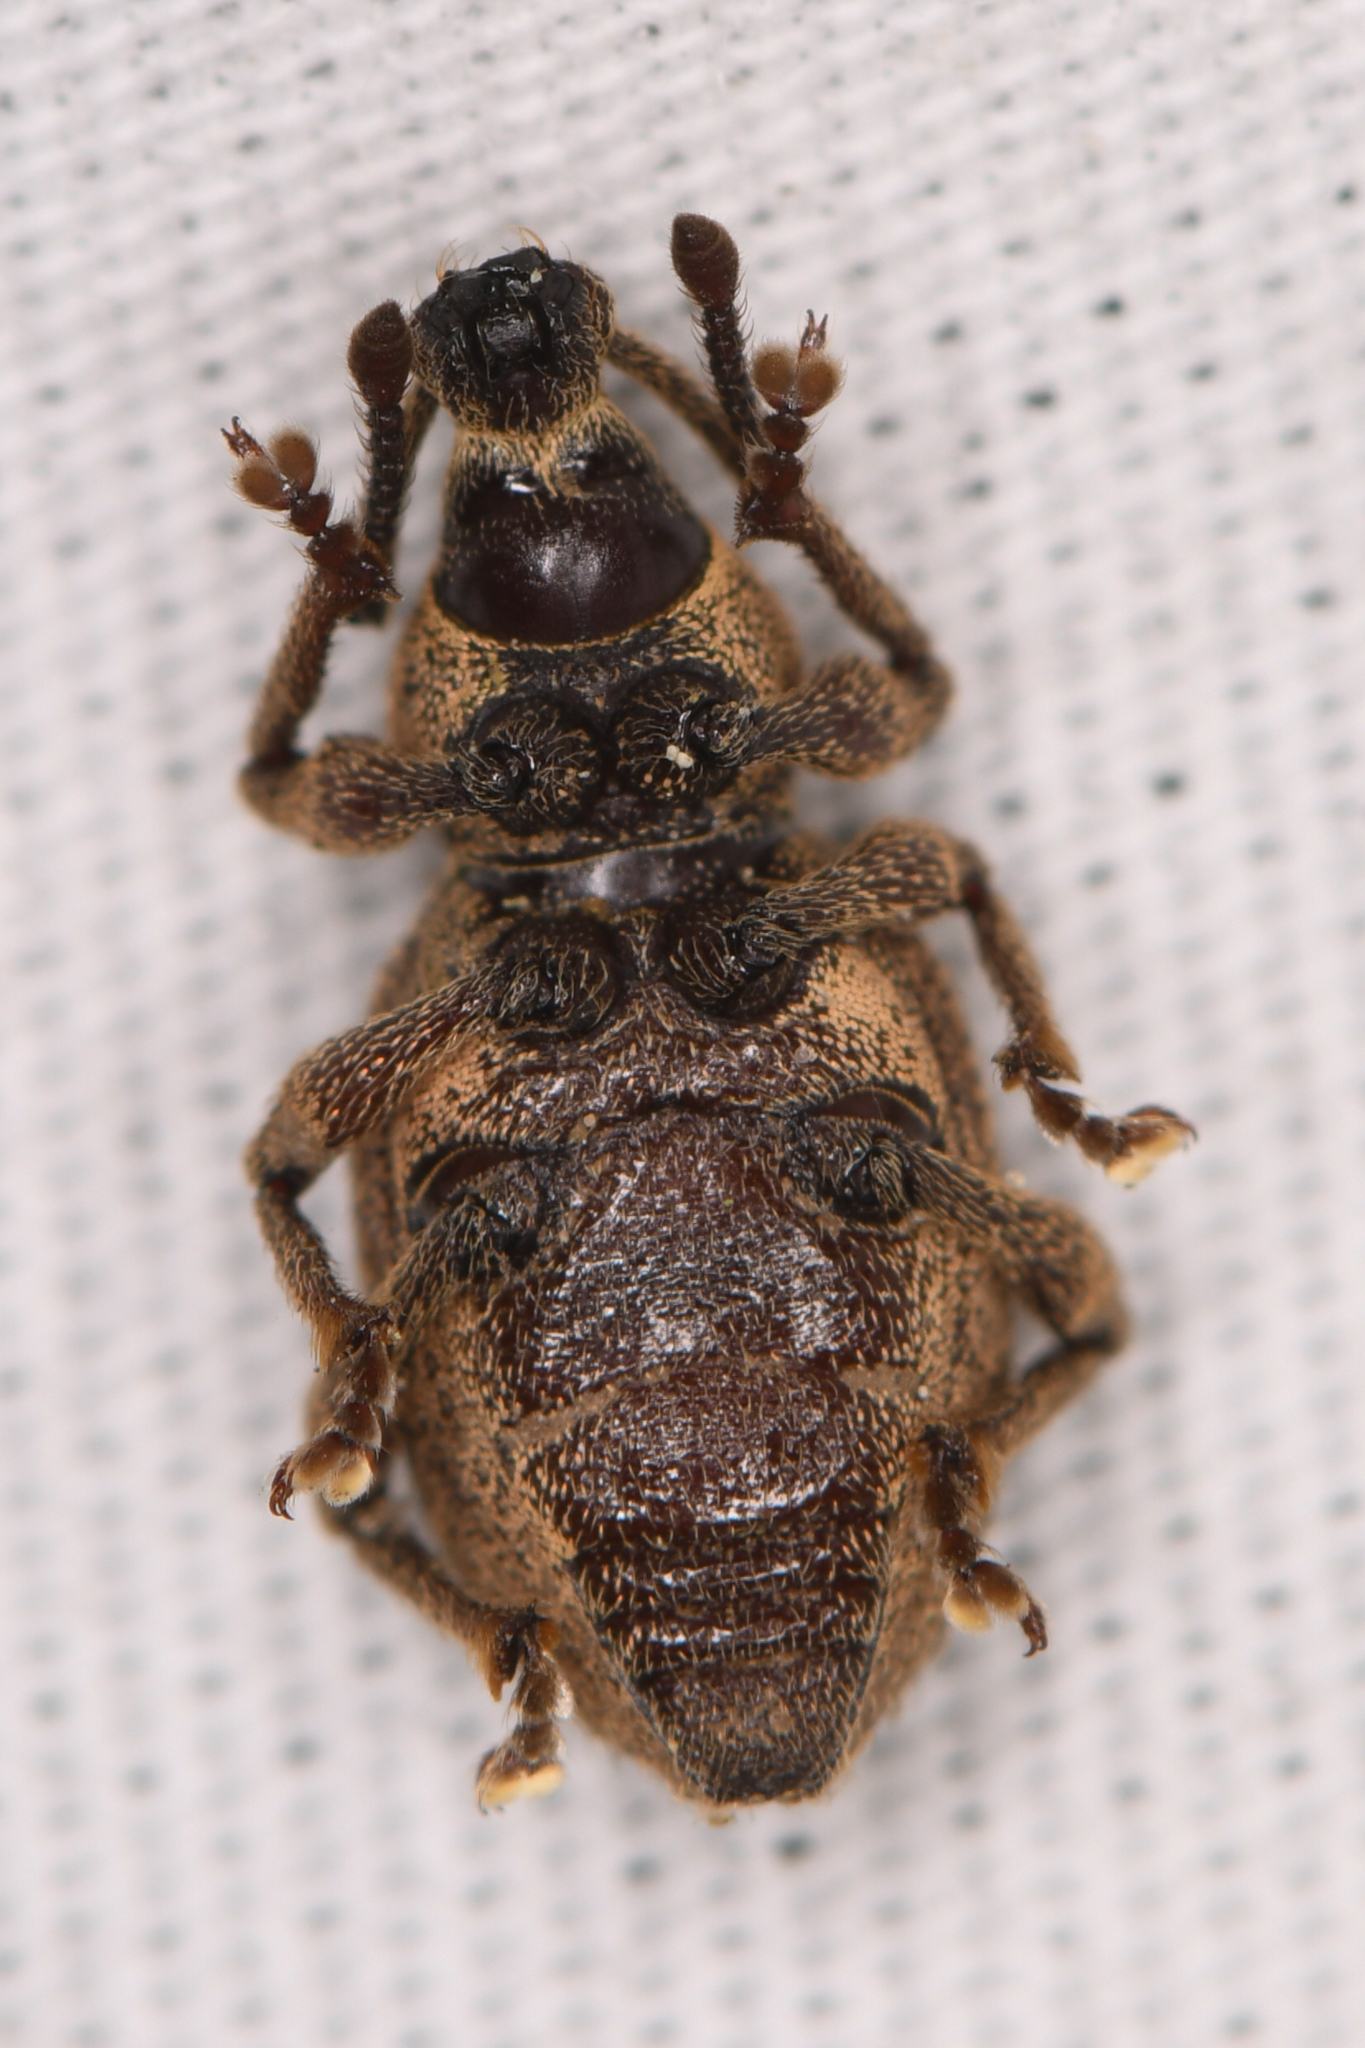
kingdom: Animalia
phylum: Arthropoda
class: Insecta
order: Coleoptera
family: Curculionidae
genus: Otiorhynchus
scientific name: Otiorhynchus singularis
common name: Clay-coloured weevil
